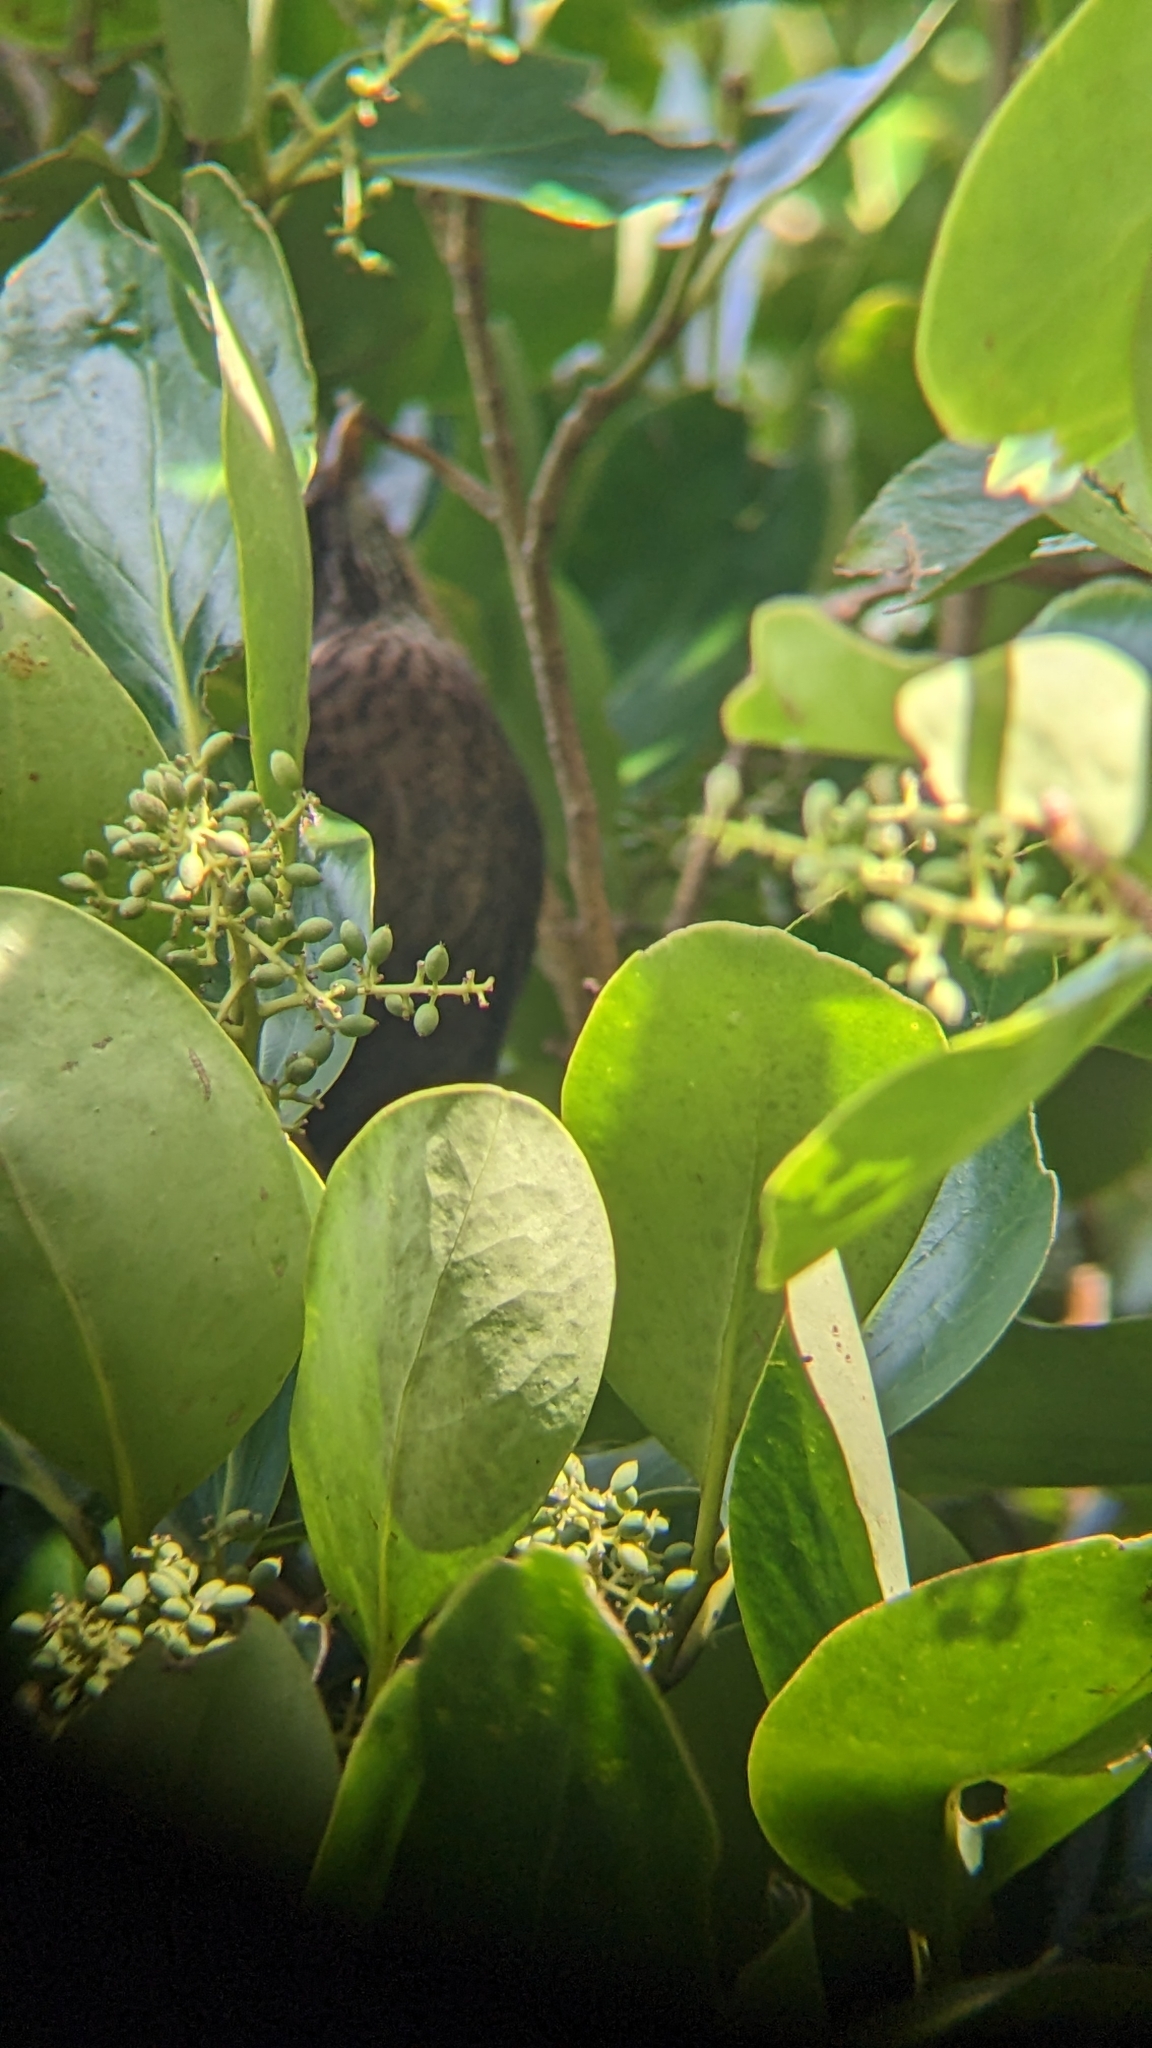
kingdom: Animalia
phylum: Chordata
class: Aves
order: Passeriformes
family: Turdidae
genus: Turdus
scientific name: Turdus merula
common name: Common blackbird
